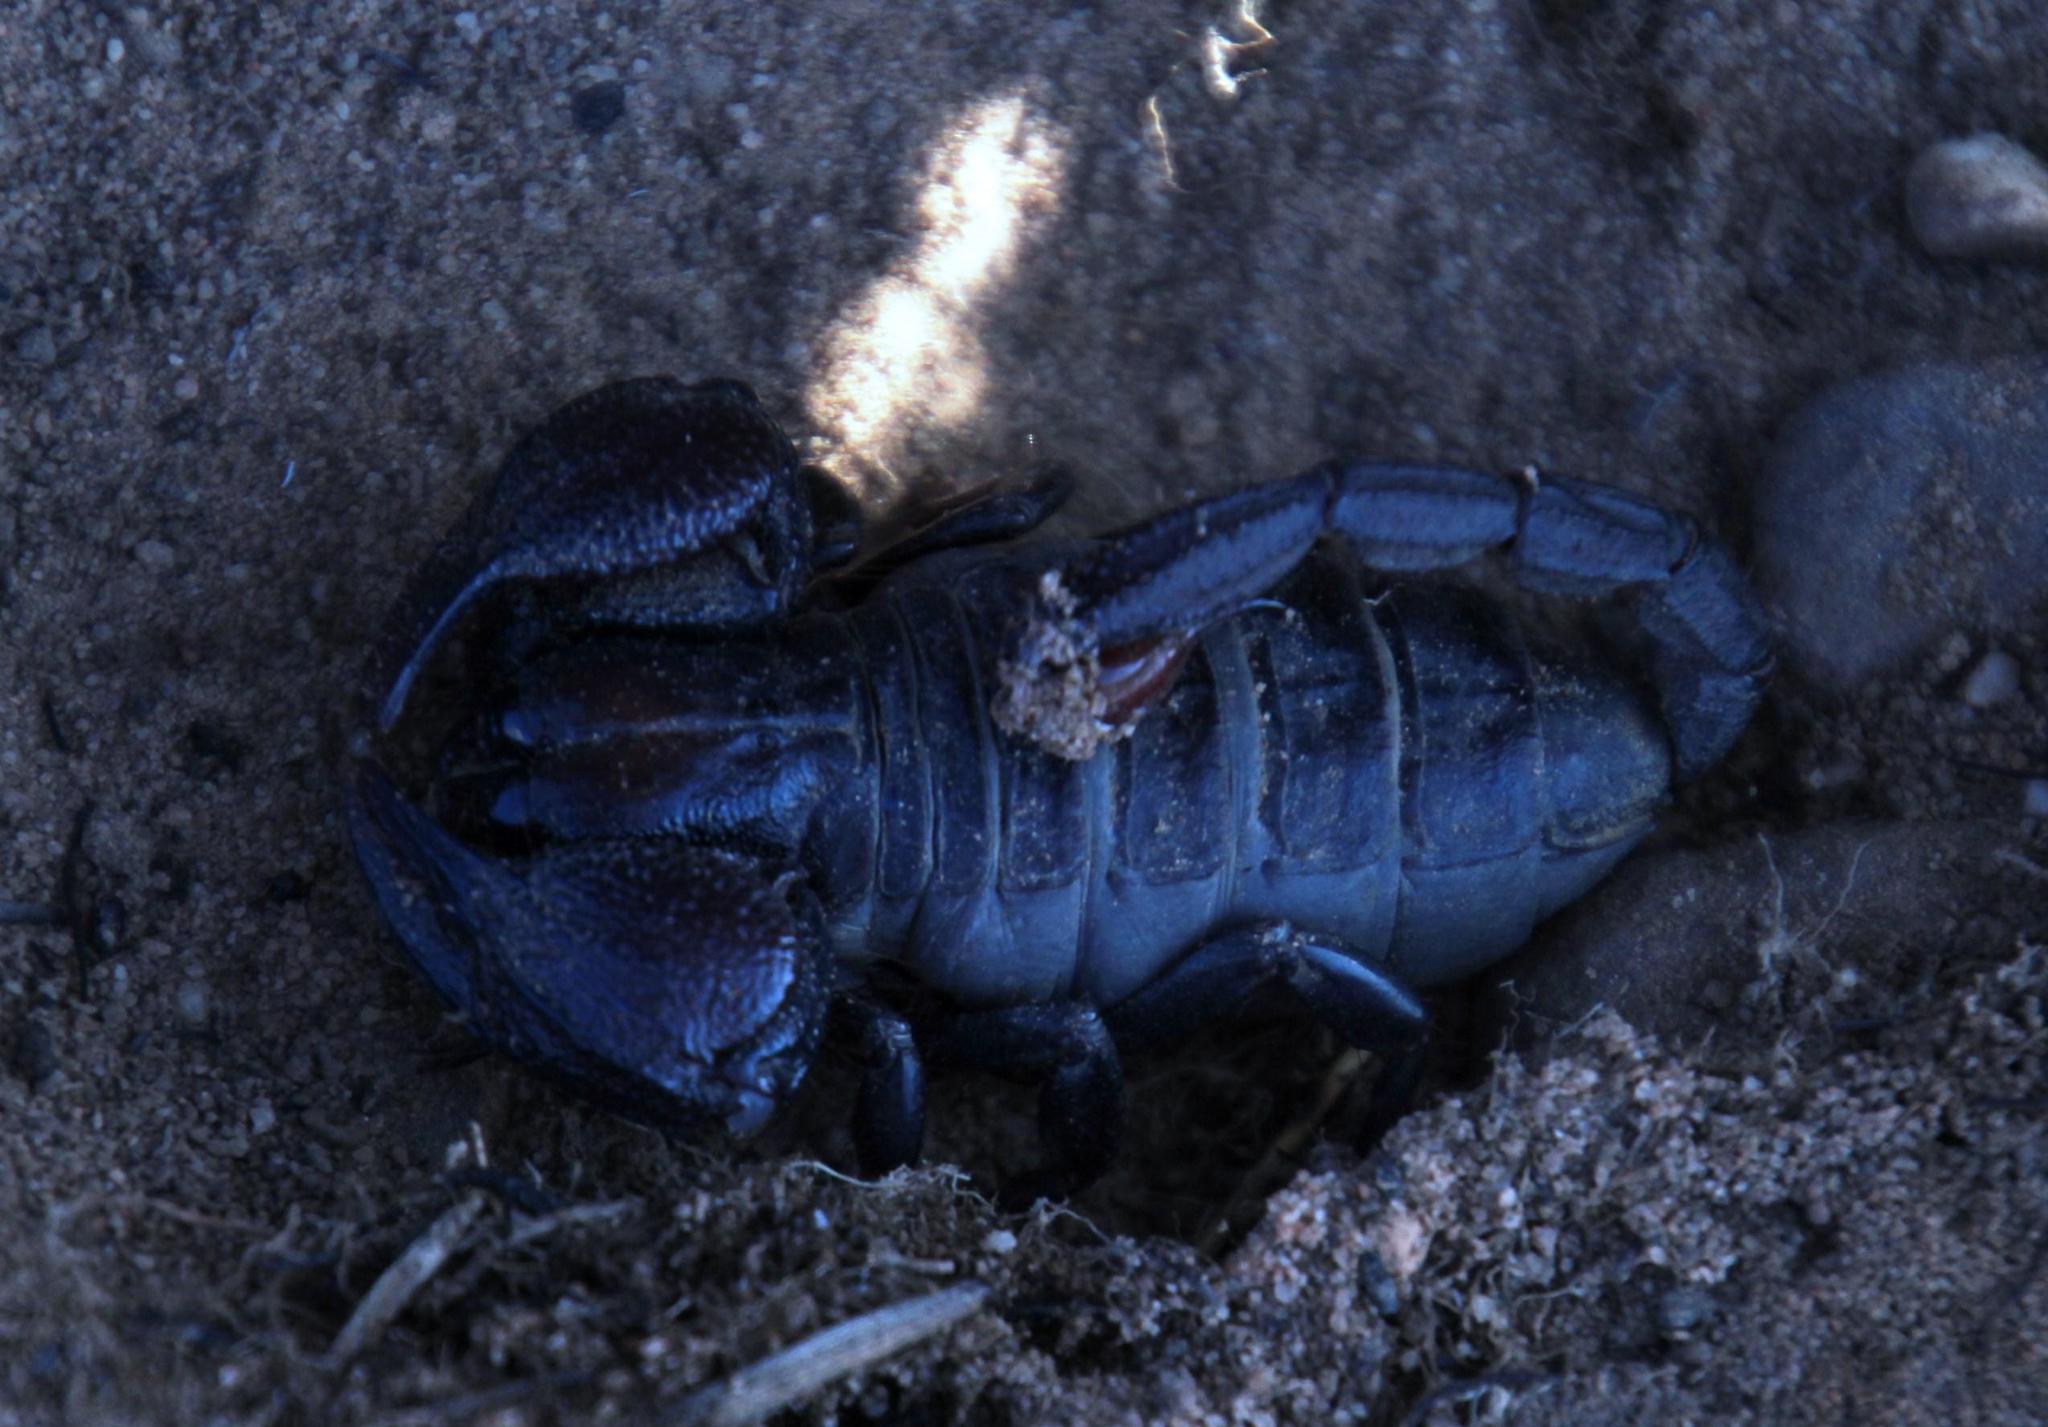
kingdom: Animalia
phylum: Arthropoda
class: Arachnida
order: Scorpiones
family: Scorpionidae
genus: Opistophthalmus
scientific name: Opistophthalmus pattisoni
